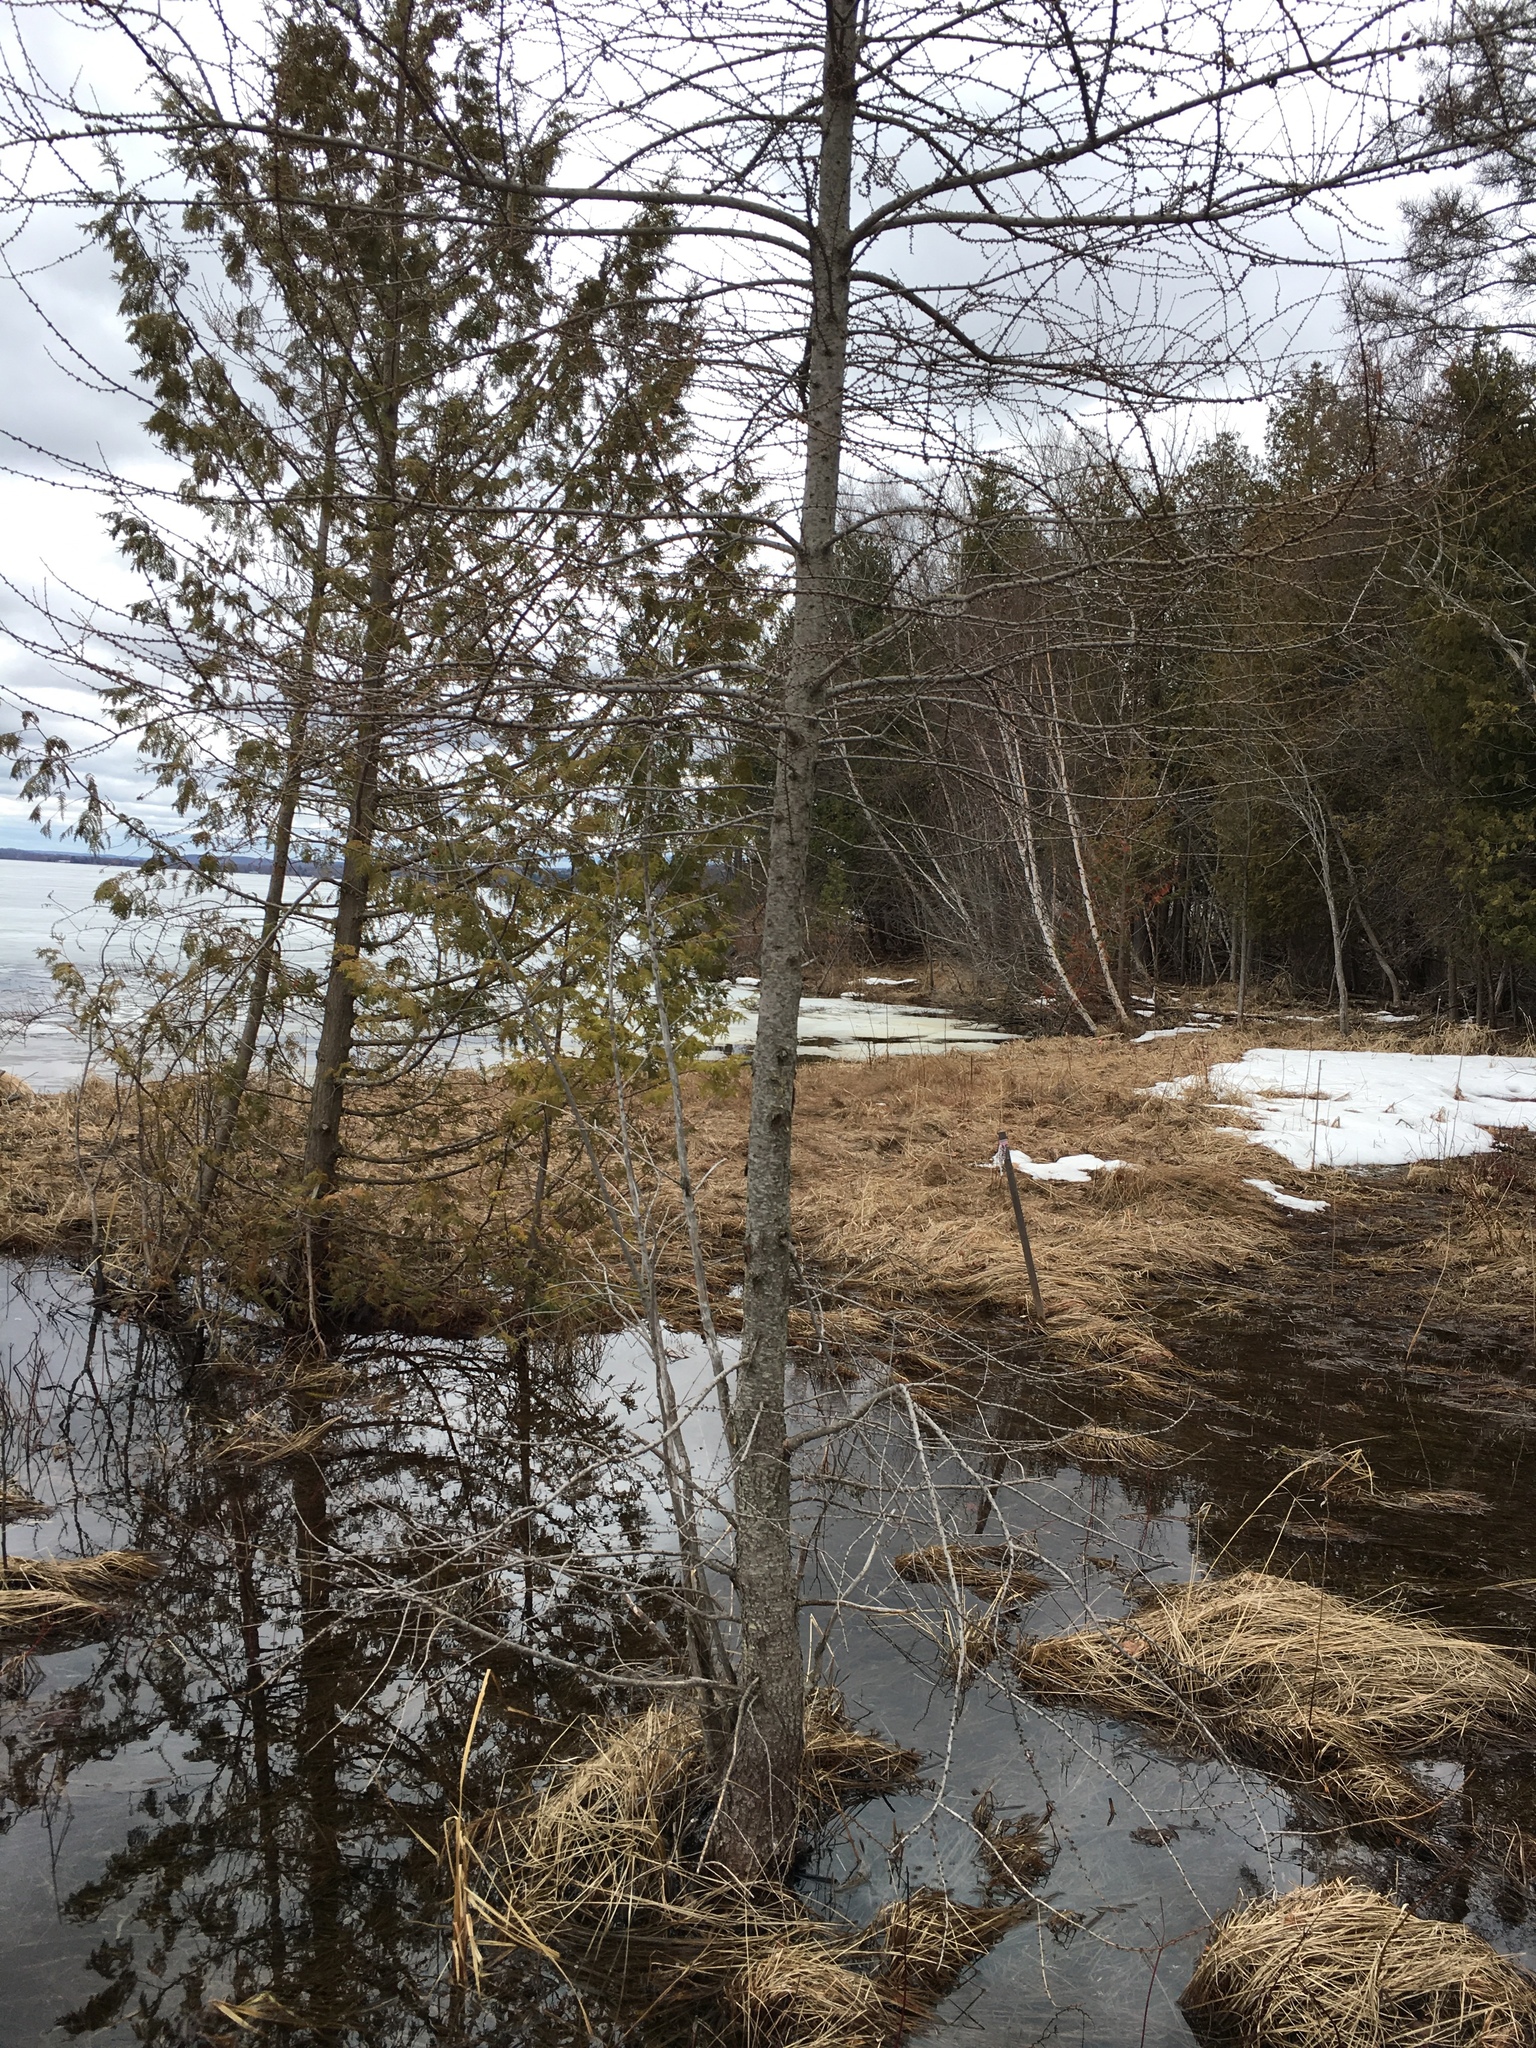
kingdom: Plantae
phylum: Tracheophyta
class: Pinopsida
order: Pinales
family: Pinaceae
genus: Larix
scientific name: Larix laricina
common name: American larch
